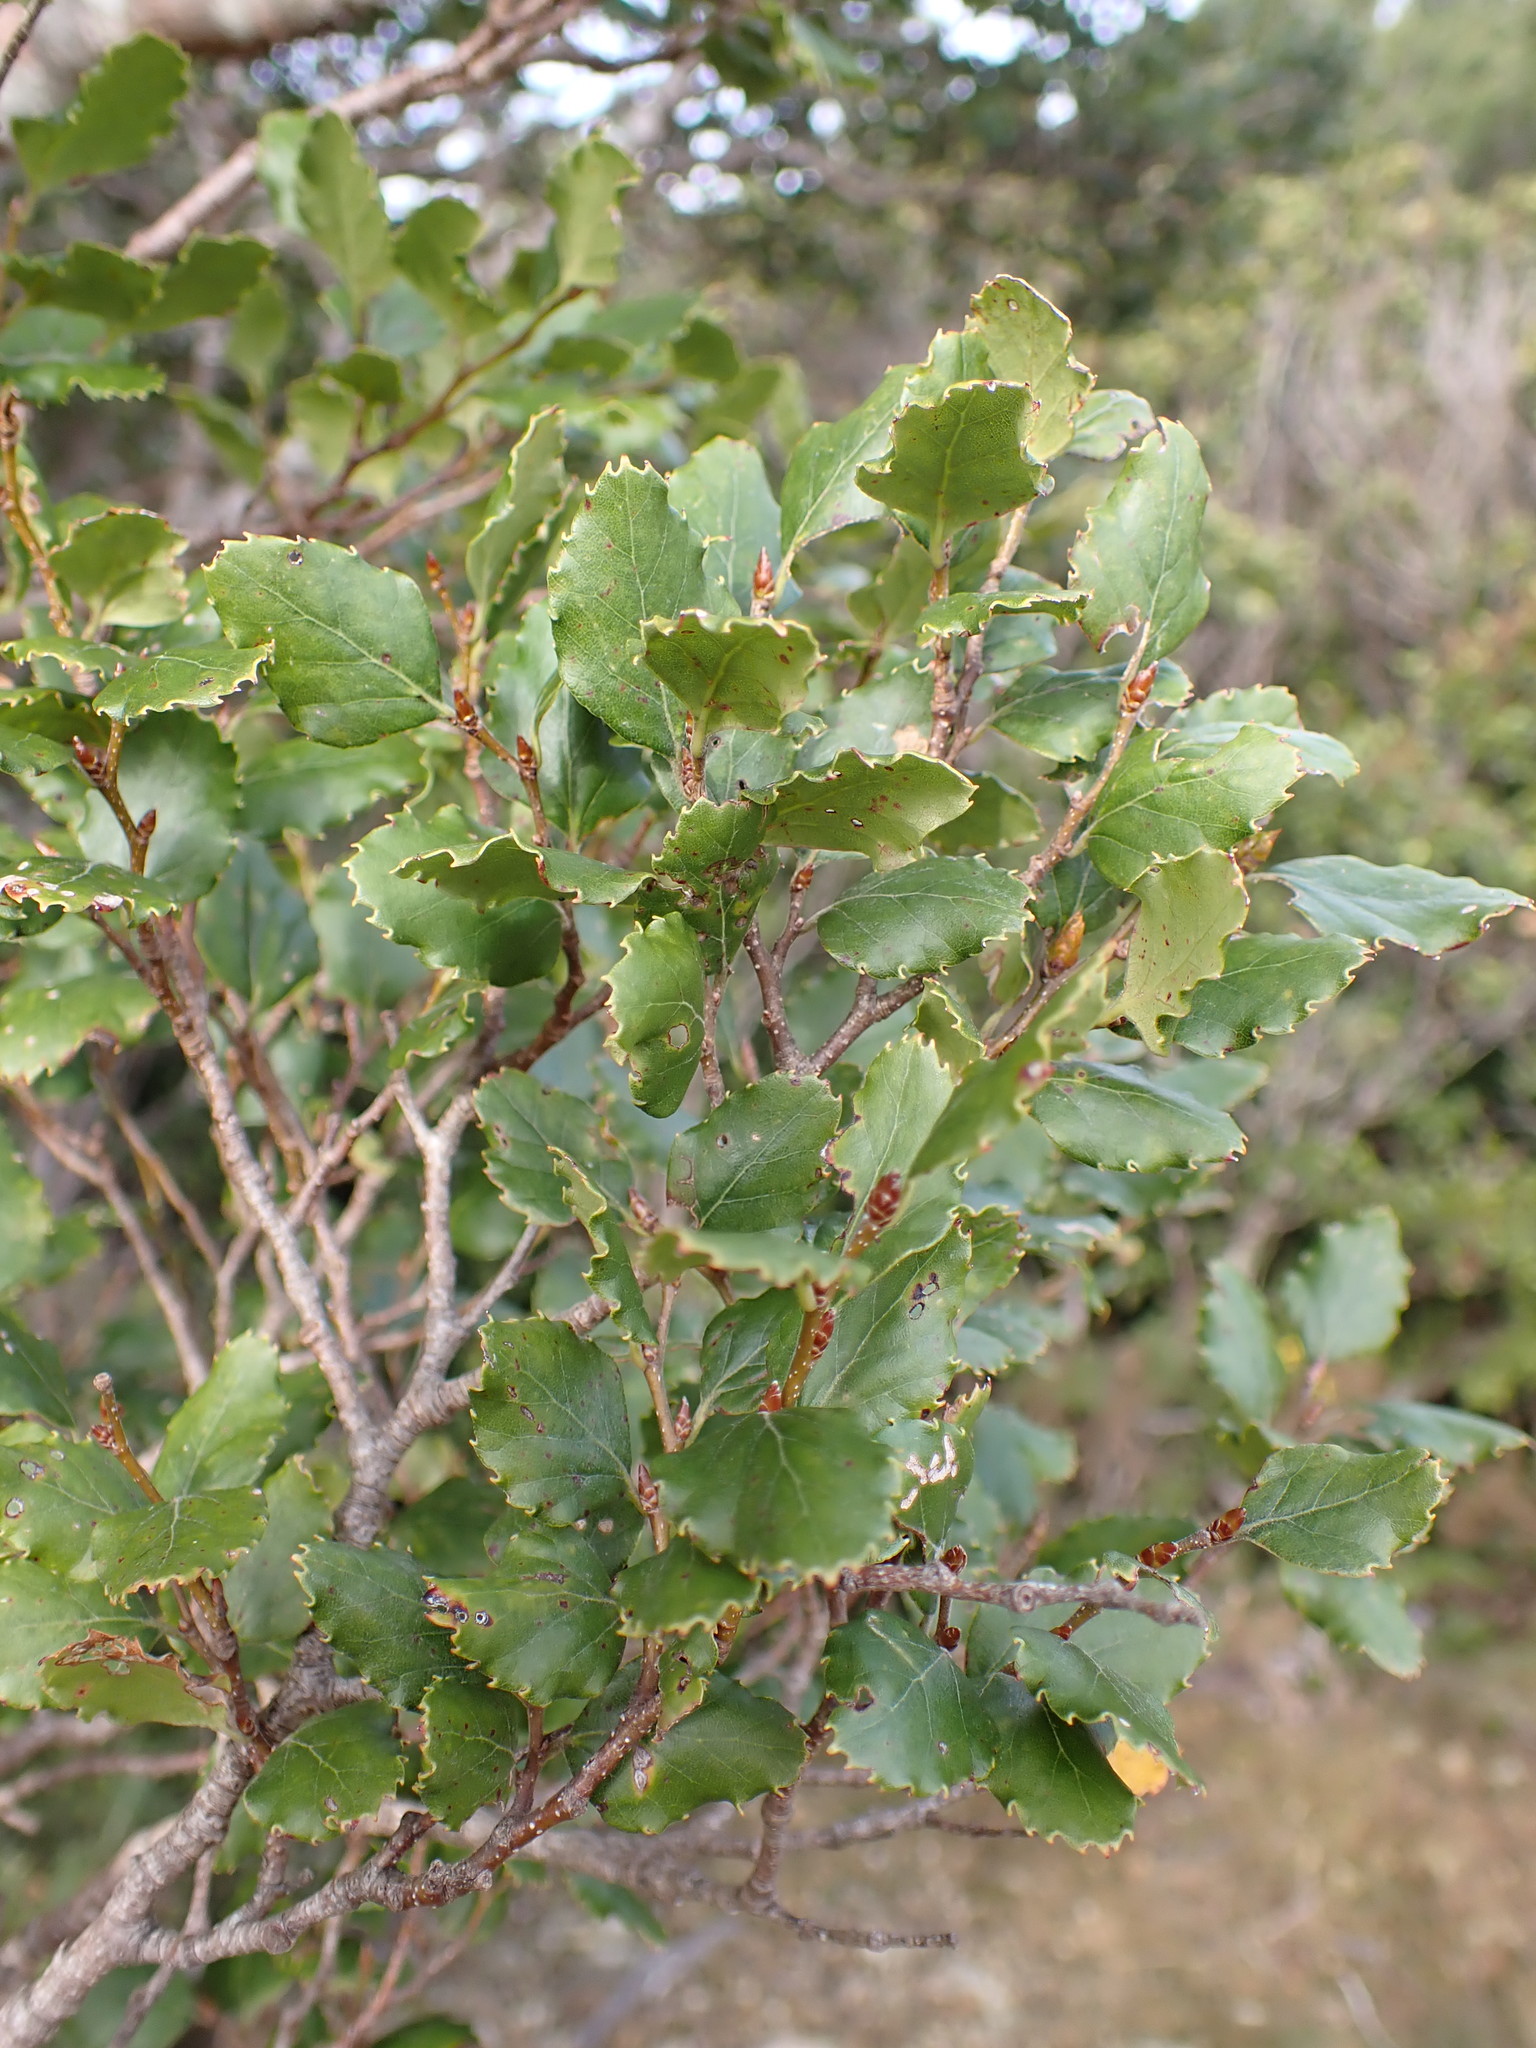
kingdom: Plantae
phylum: Tracheophyta
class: Magnoliopsida
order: Fagales
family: Nothofagaceae
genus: Nothofagus
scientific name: Nothofagus truncata
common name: Hard beech
